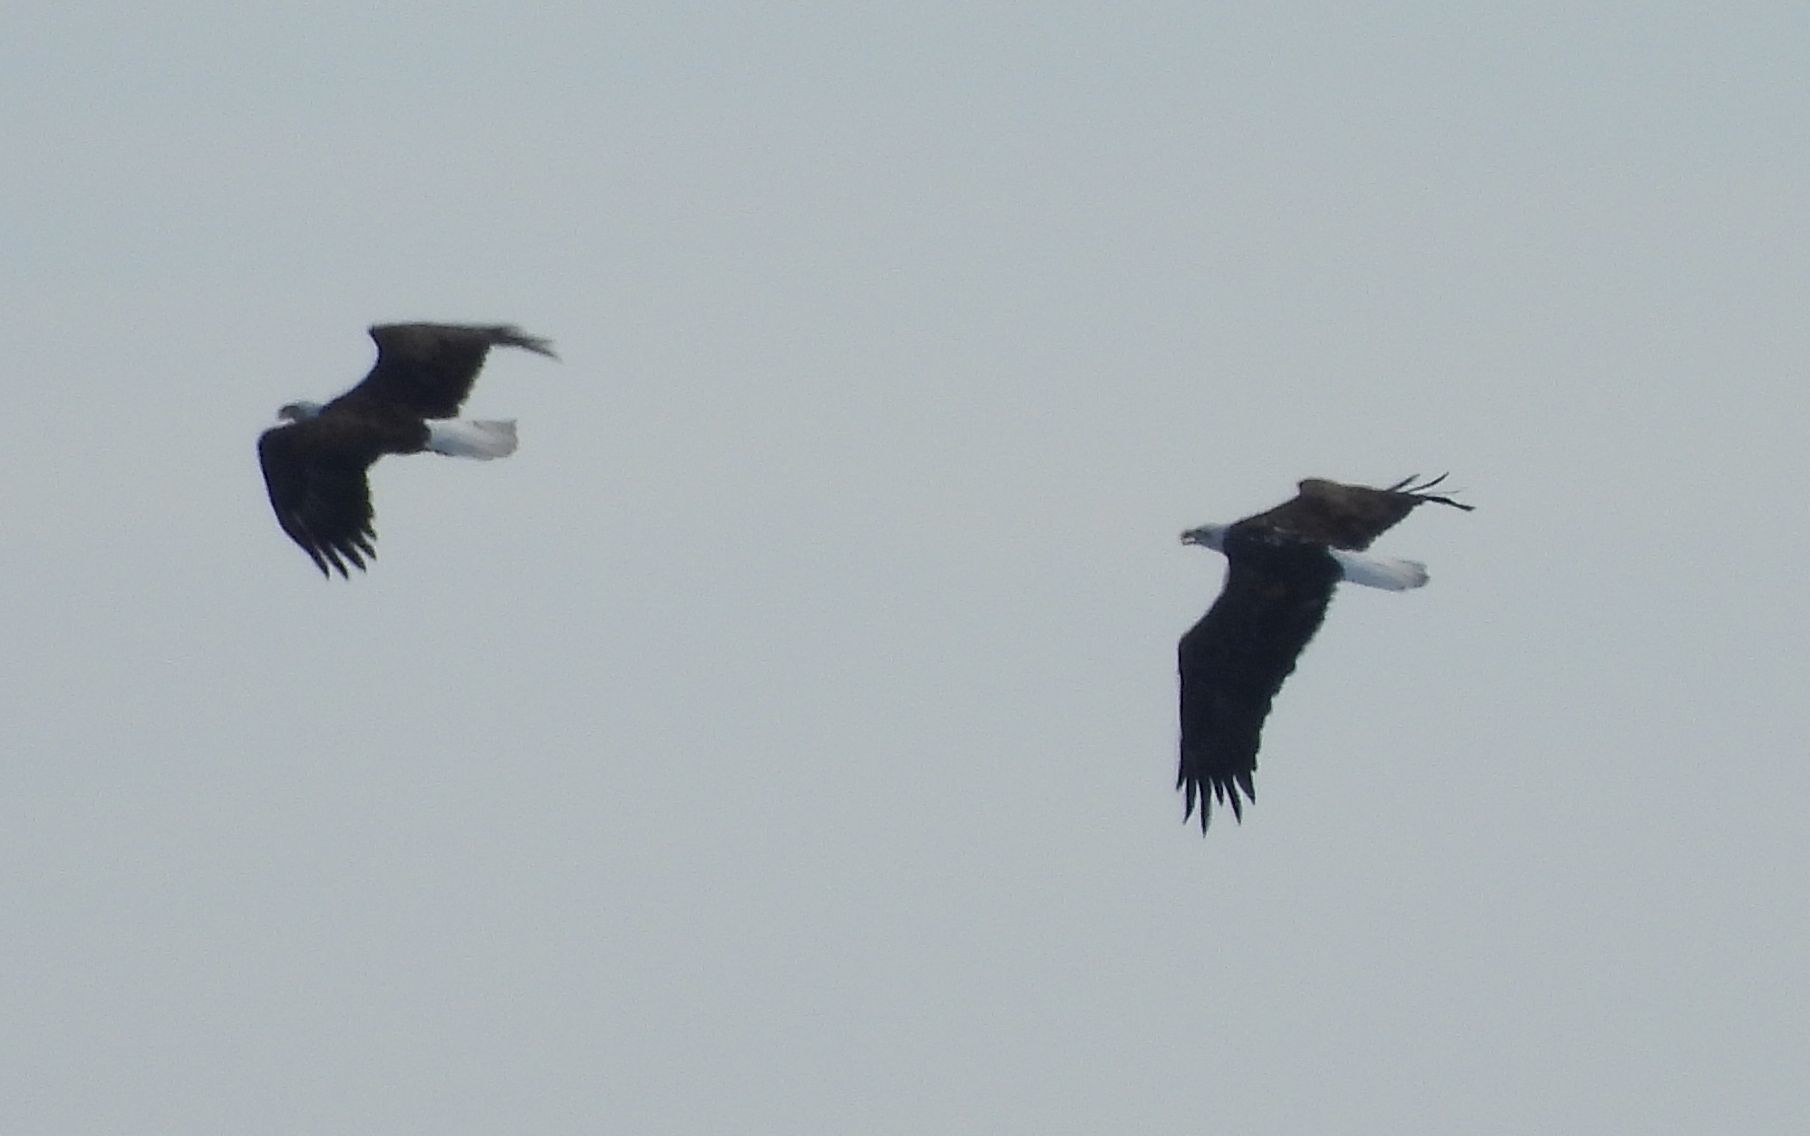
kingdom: Animalia
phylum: Chordata
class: Aves
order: Accipitriformes
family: Accipitridae
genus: Haliaeetus
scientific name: Haliaeetus leucocephalus
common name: Bald eagle
